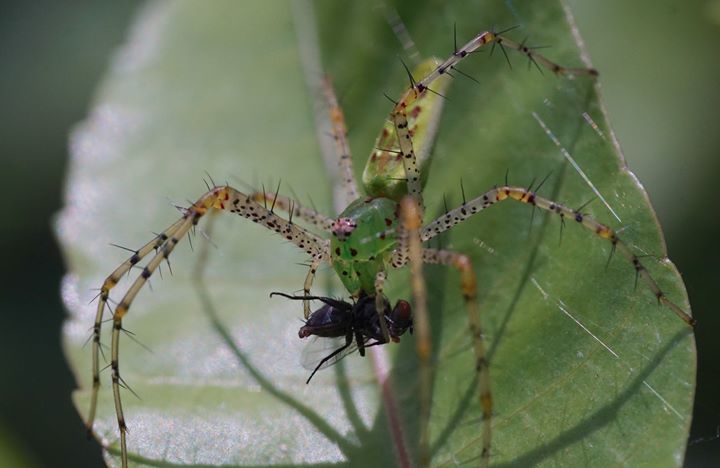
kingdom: Animalia
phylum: Arthropoda
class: Arachnida
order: Araneae
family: Oxyopidae
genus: Peucetia
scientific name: Peucetia viridans
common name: Lynx spiders
